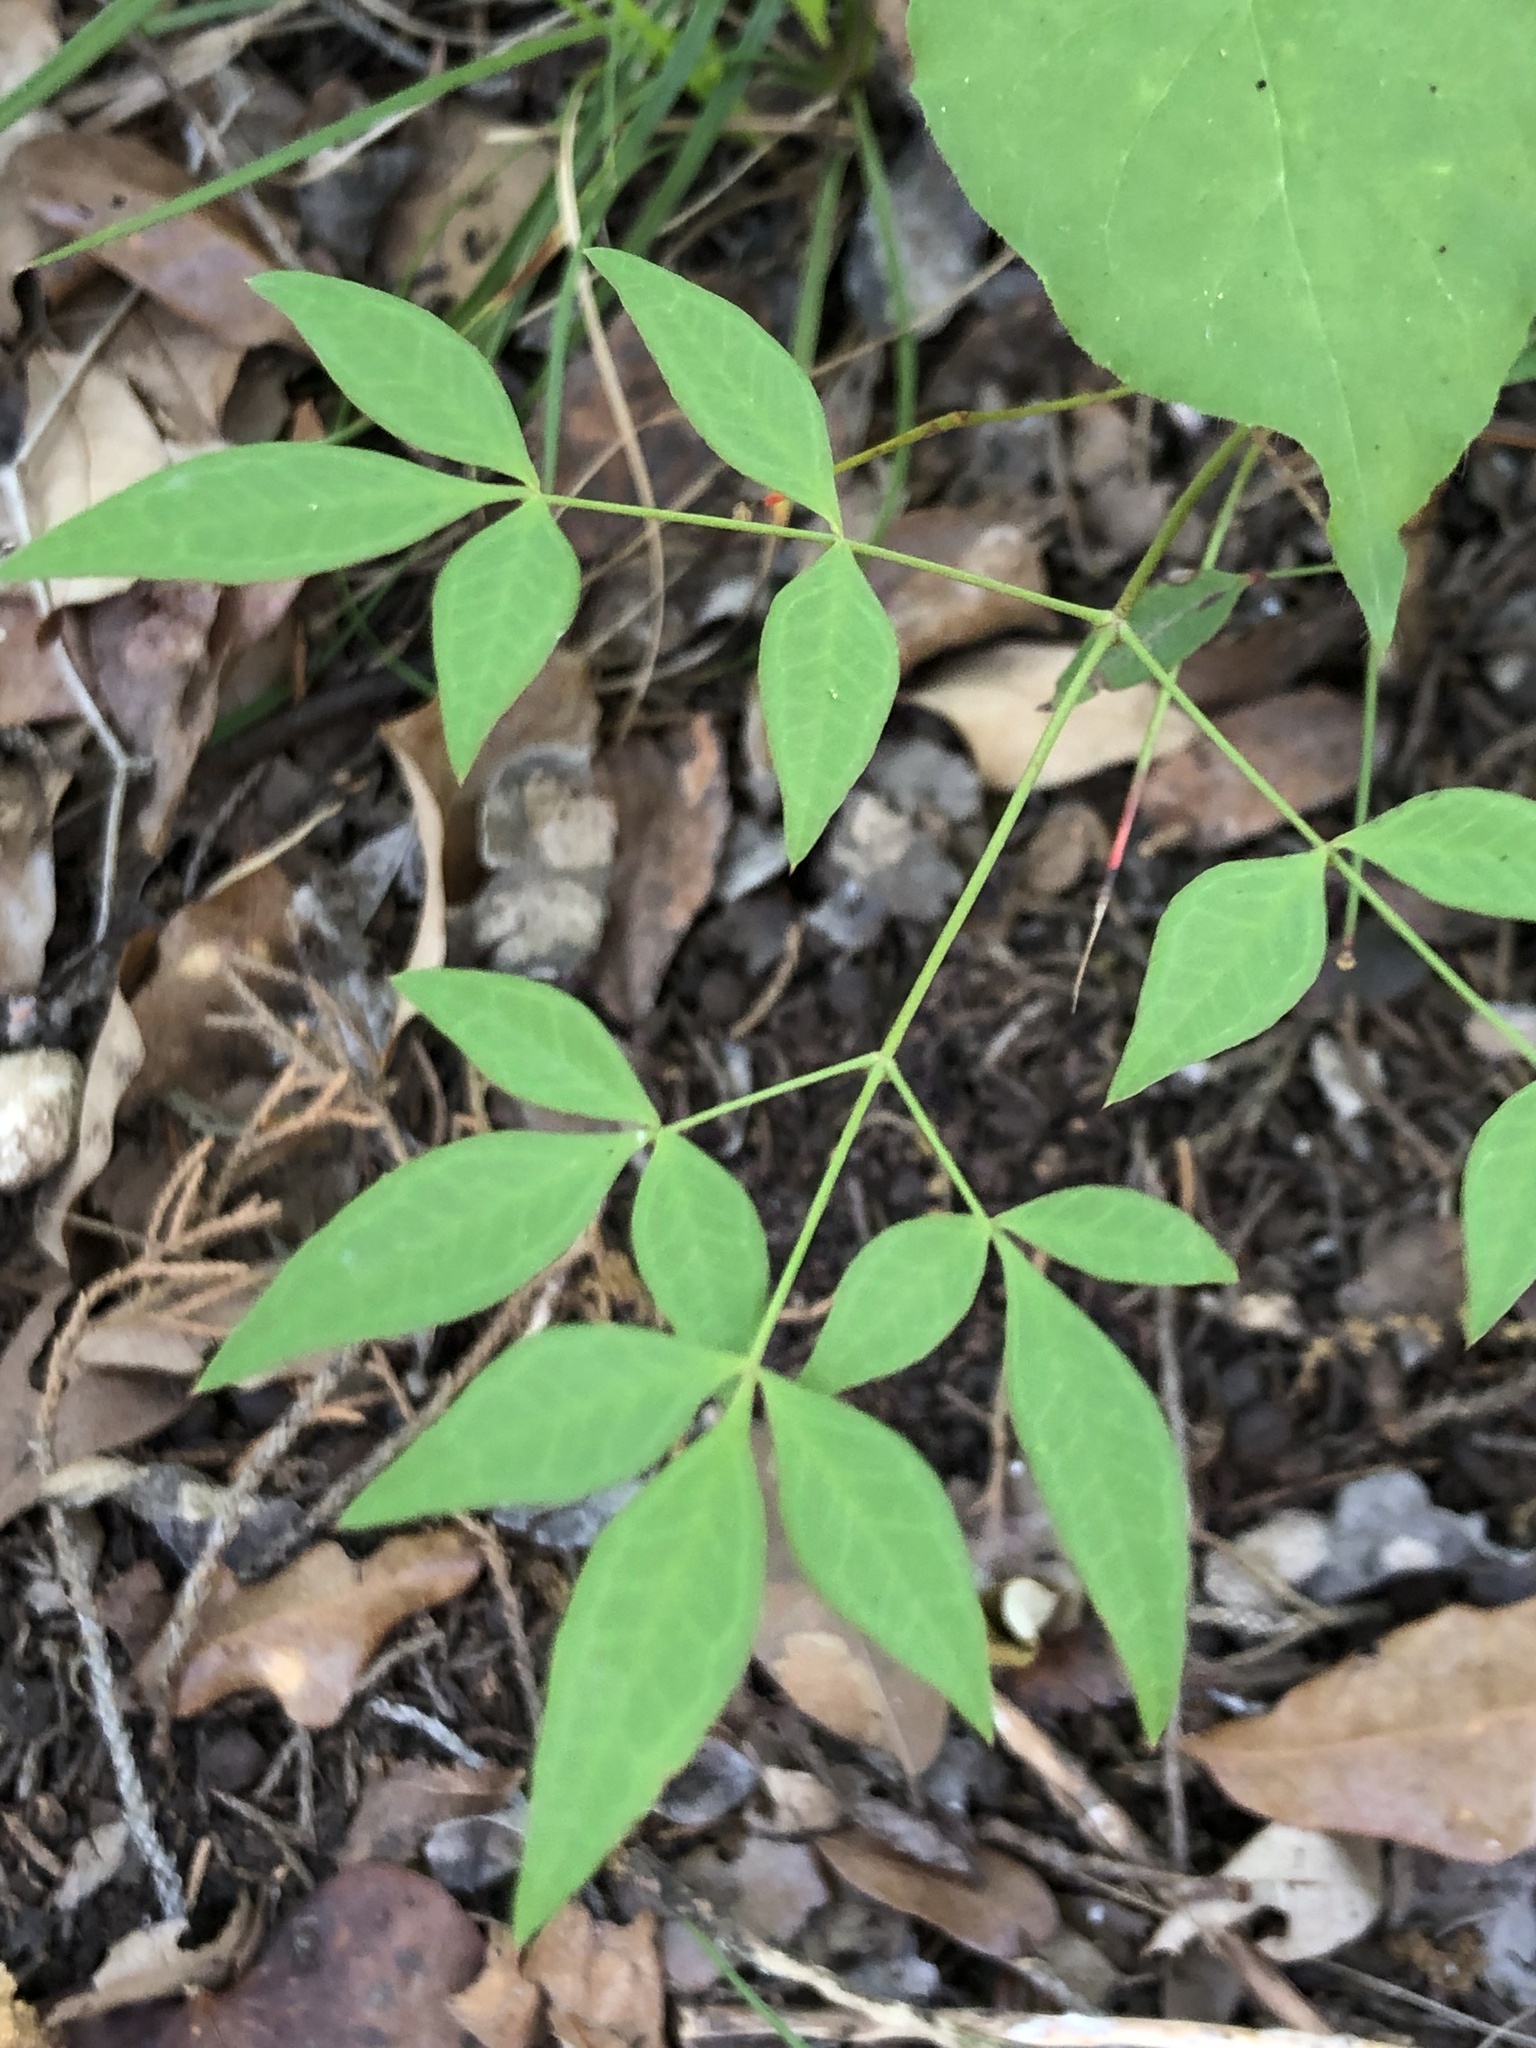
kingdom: Plantae
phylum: Tracheophyta
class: Magnoliopsida
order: Ranunculales
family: Berberidaceae
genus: Nandina
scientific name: Nandina domestica
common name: Sacred bamboo
